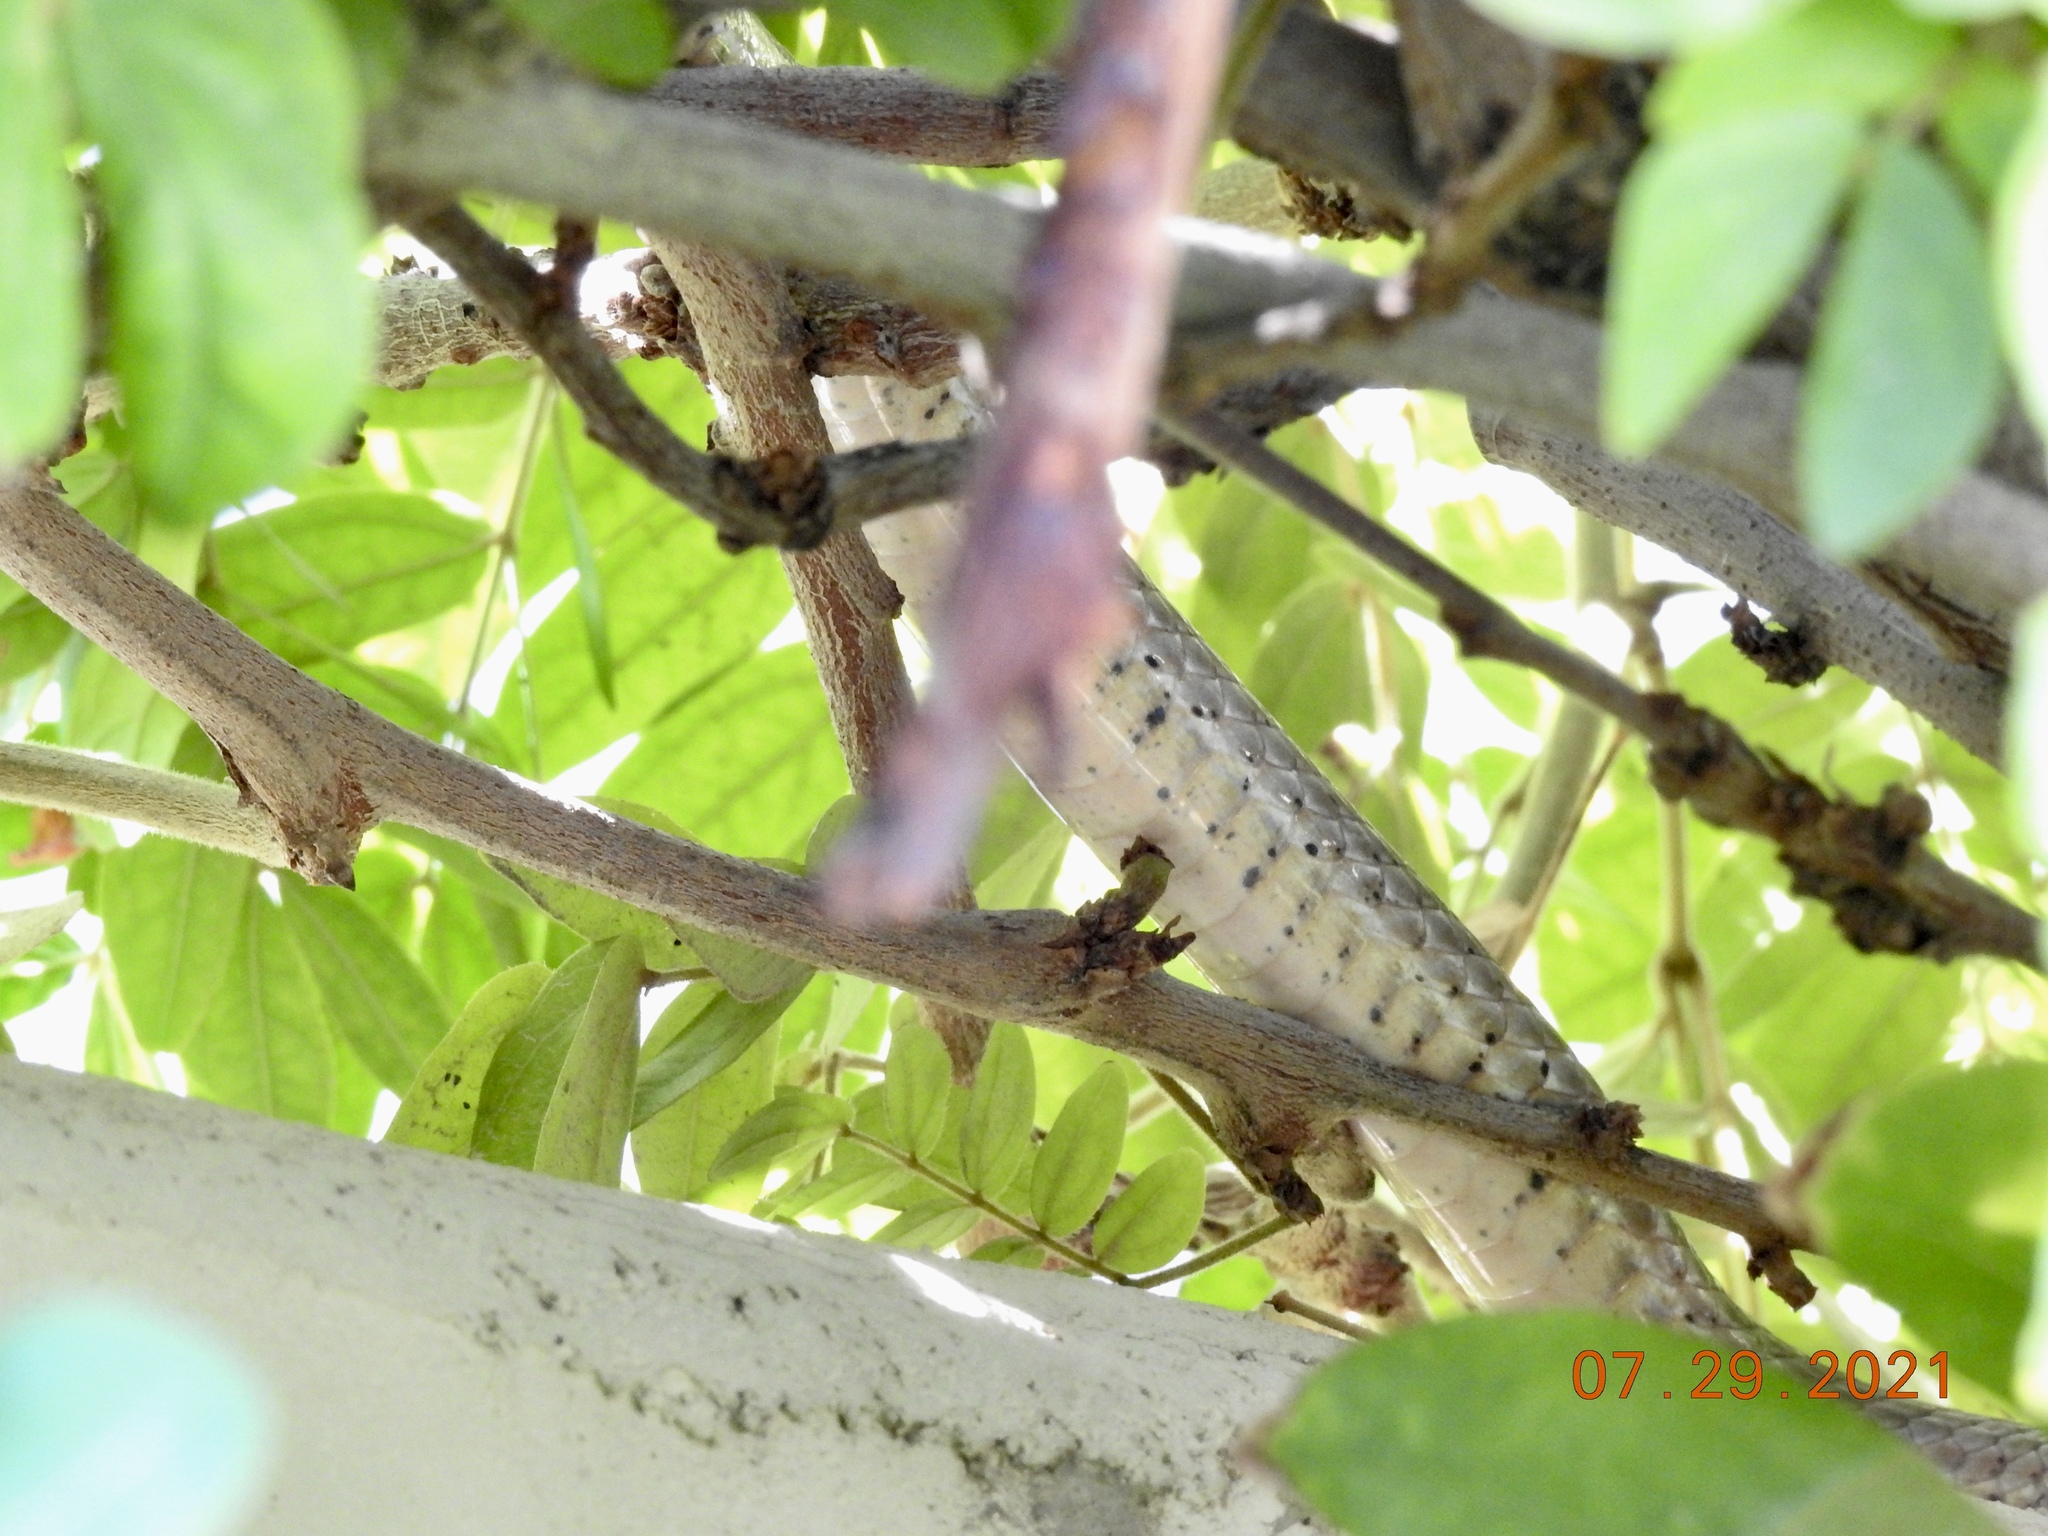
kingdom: Animalia
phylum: Chordata
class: Squamata
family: Colubridae
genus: Masticophis
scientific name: Masticophis flagellum
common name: Coachwhip
